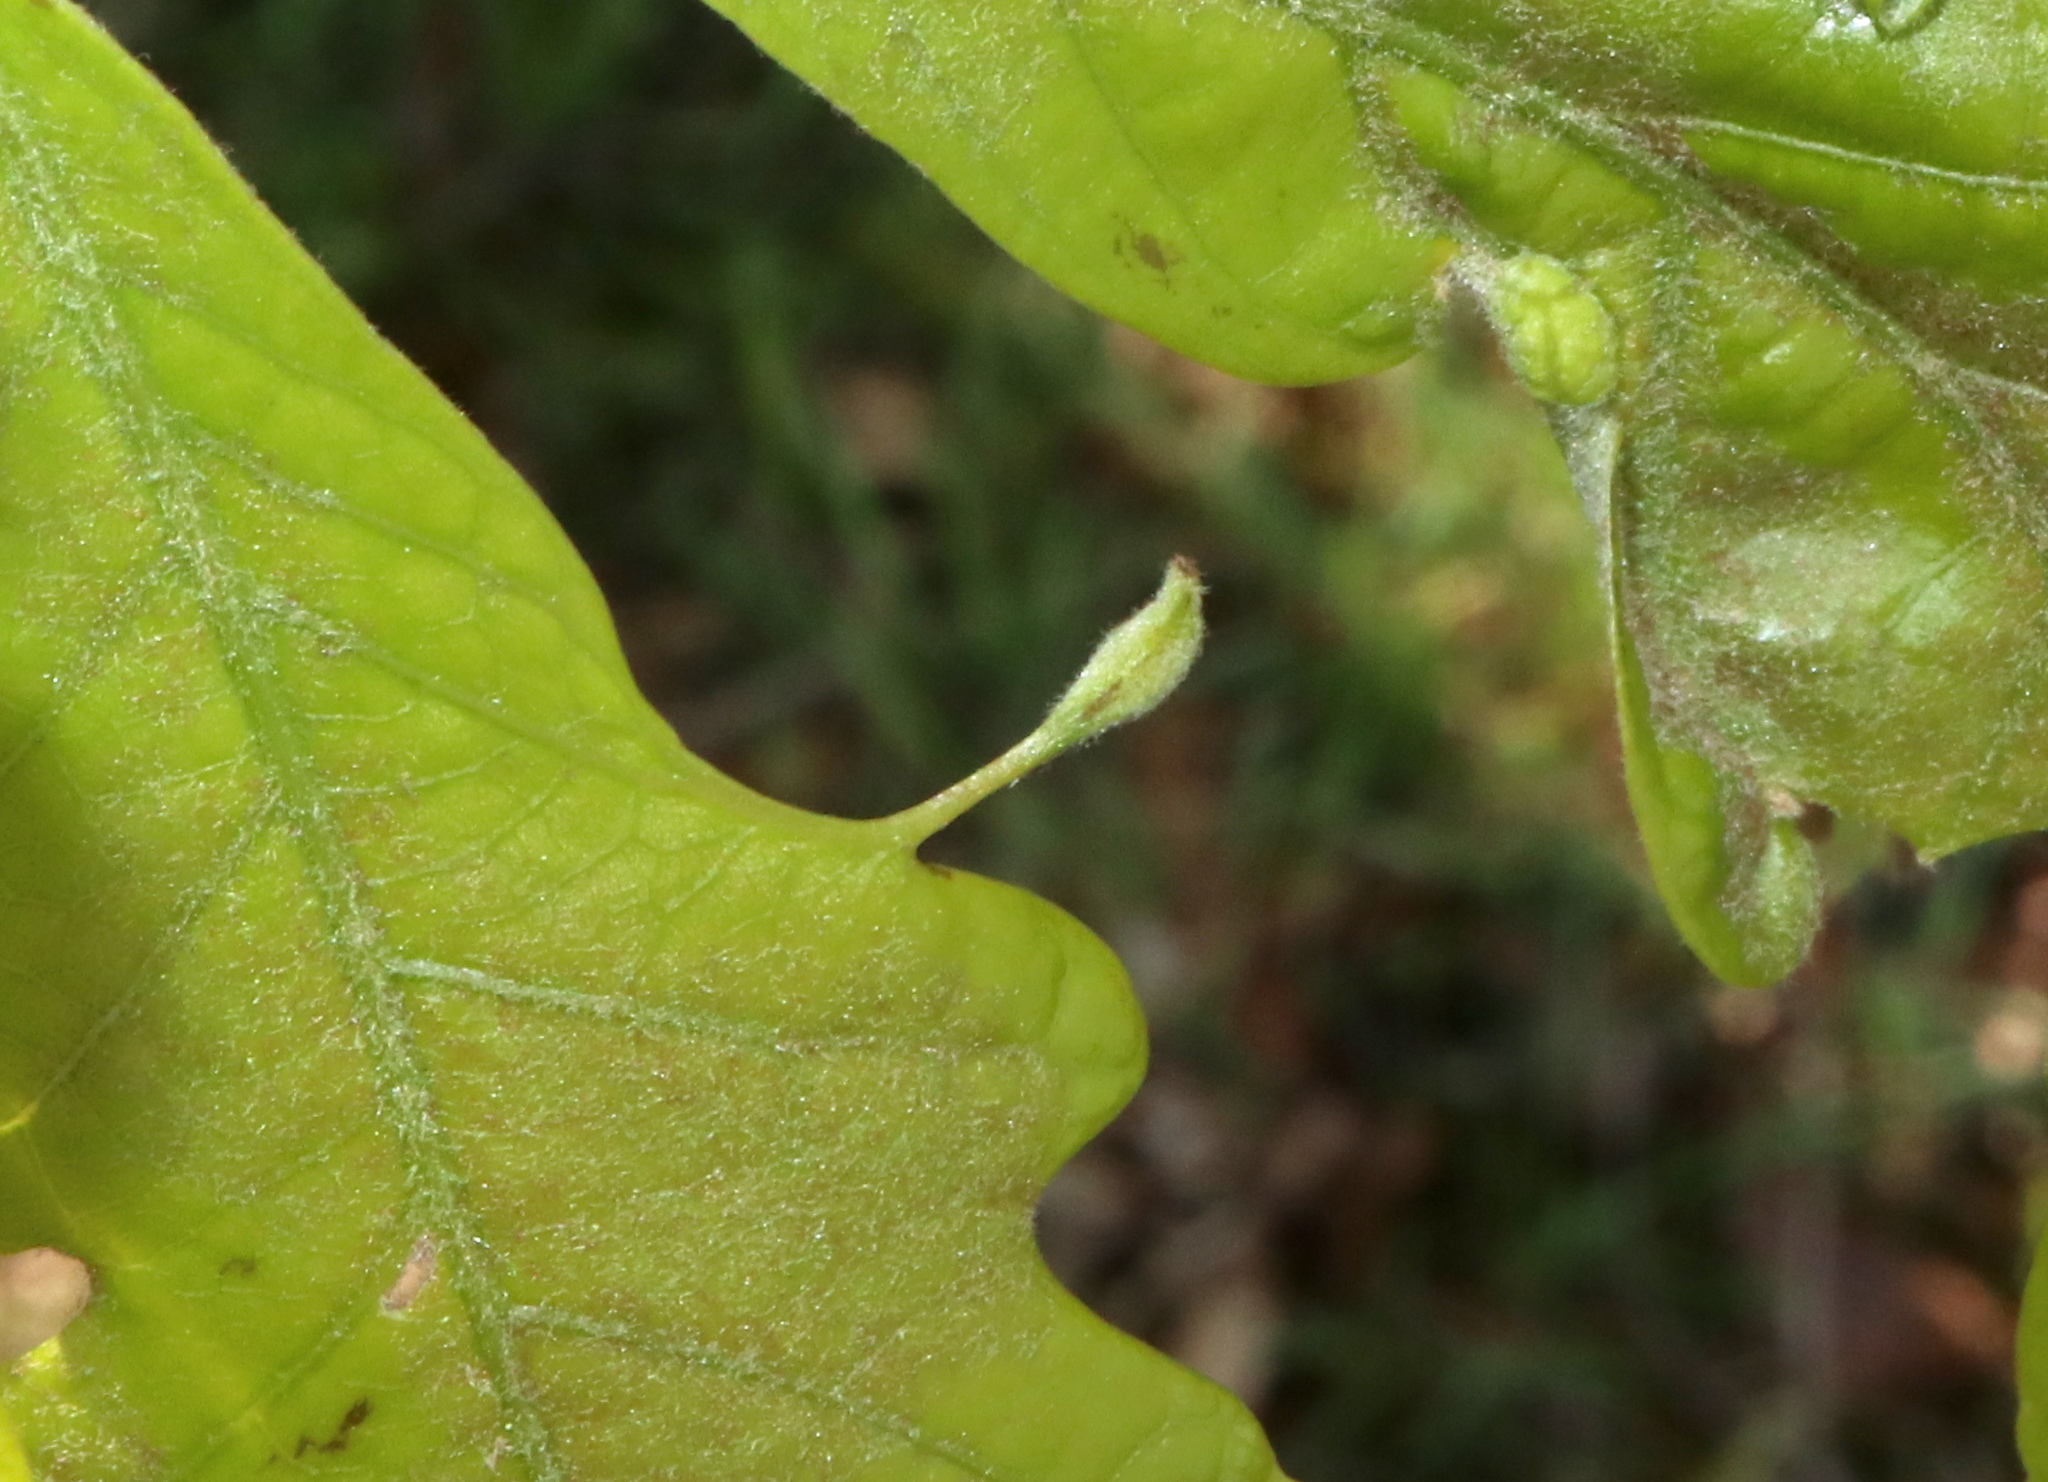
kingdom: Animalia
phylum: Arthropoda
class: Insecta
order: Hymenoptera
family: Cynipidae
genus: Andricus
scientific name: Andricus
